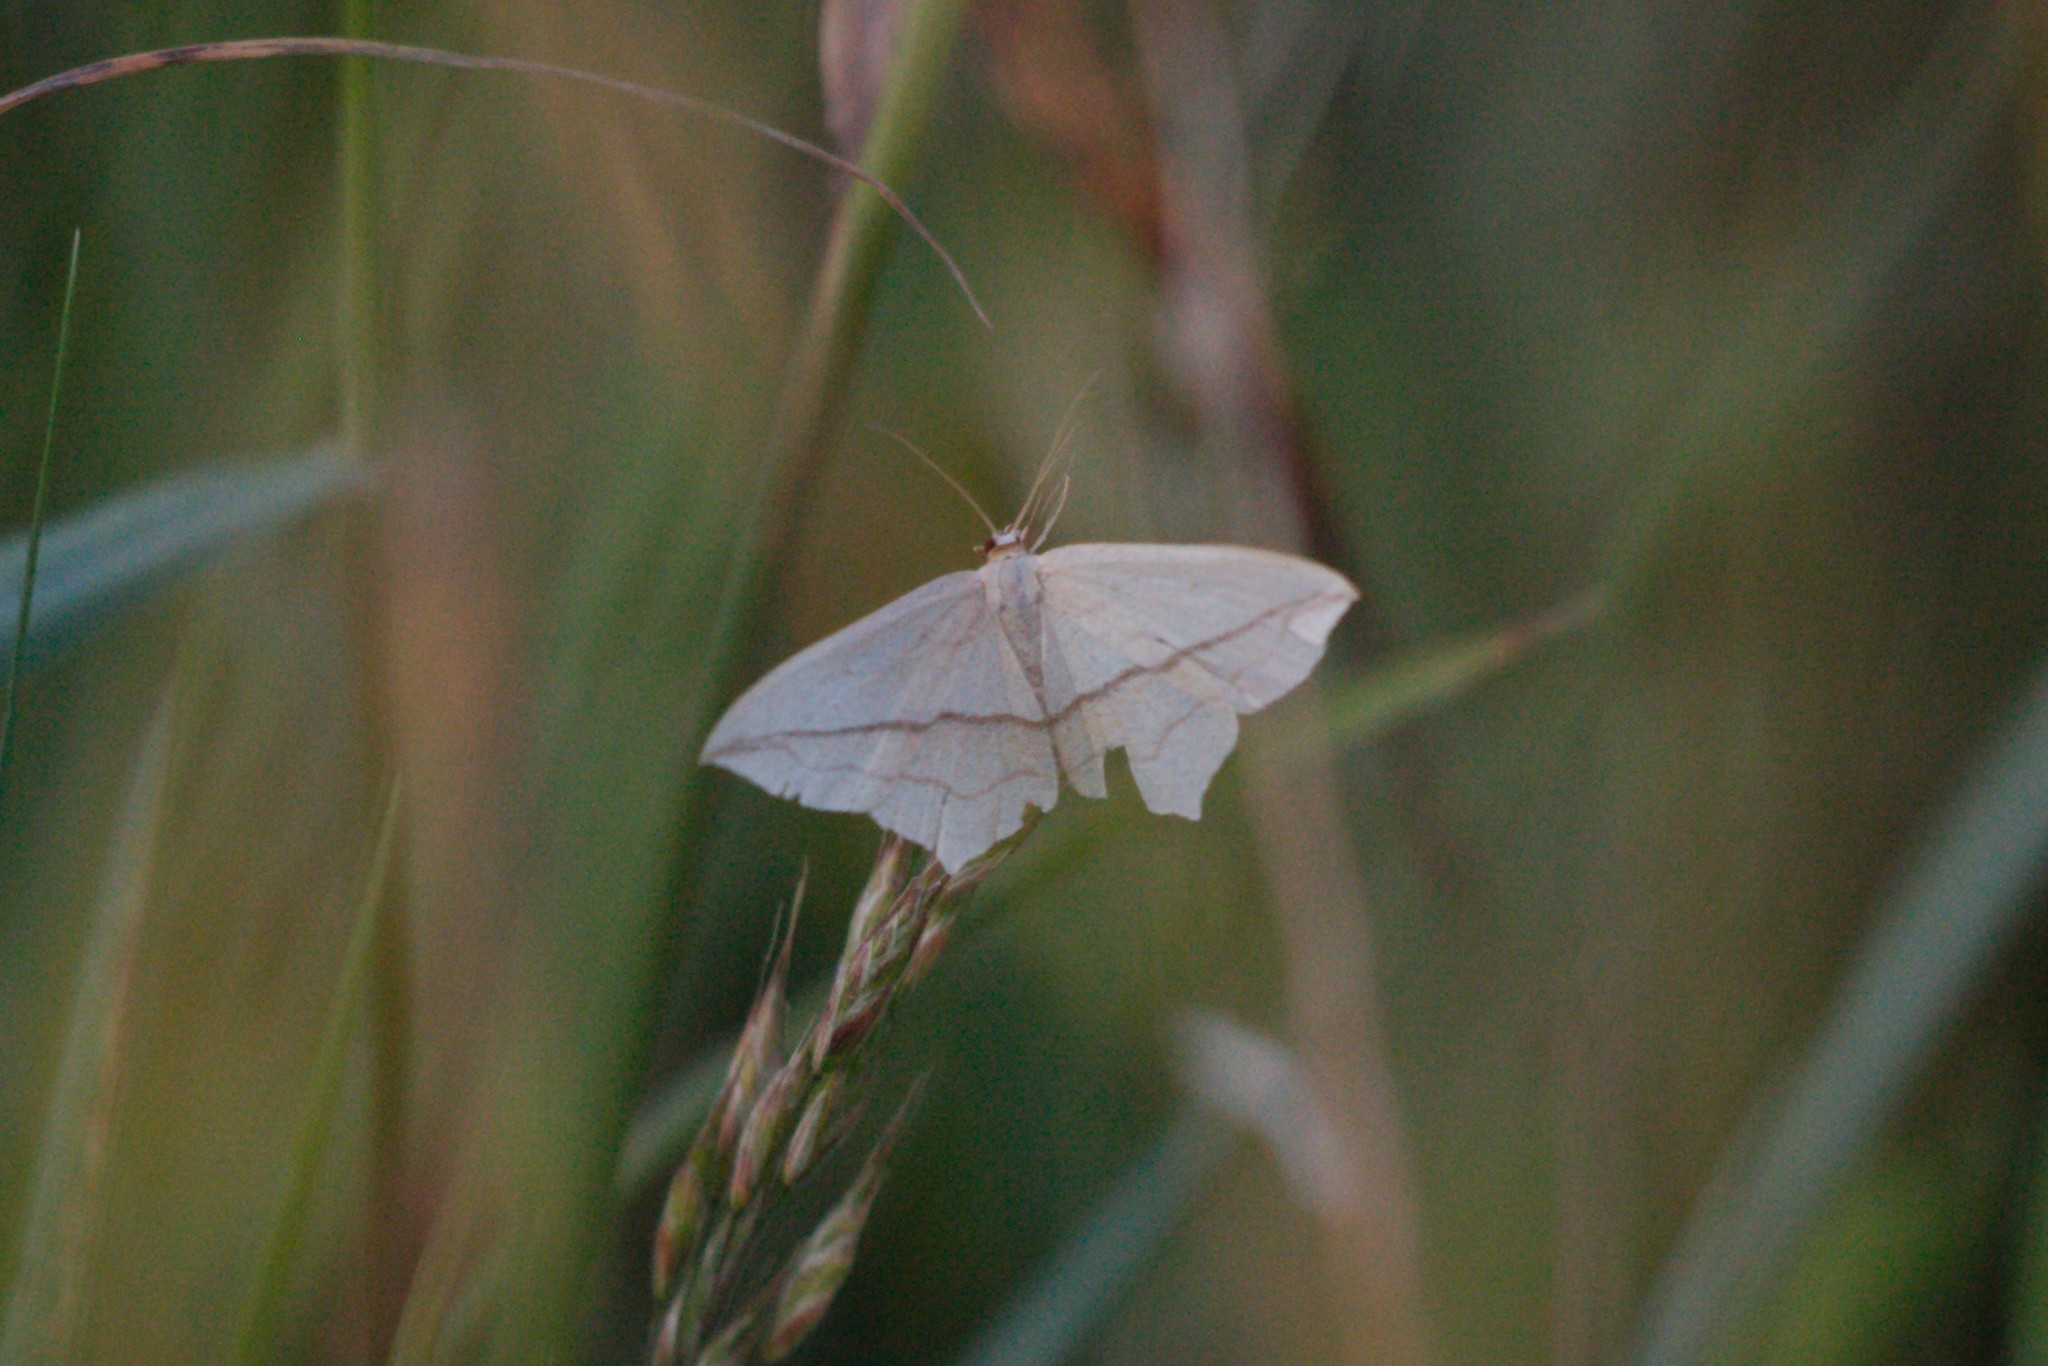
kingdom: Animalia
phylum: Arthropoda
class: Insecta
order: Lepidoptera
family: Geometridae
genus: Timandra
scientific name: Timandra comae
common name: Blood-vein
